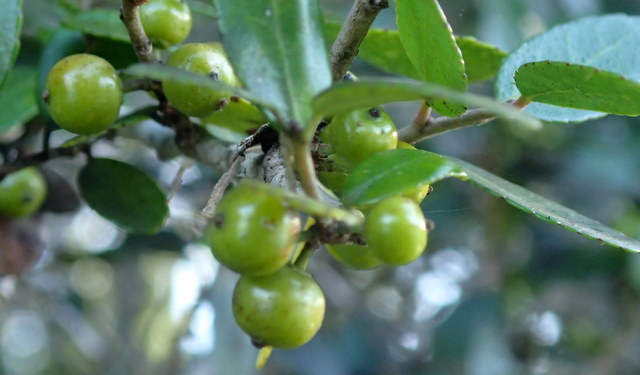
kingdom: Plantae
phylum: Tracheophyta
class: Magnoliopsida
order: Aquifoliales
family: Aquifoliaceae
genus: Ilex
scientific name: Ilex vomitoria
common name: Yaupon holly
